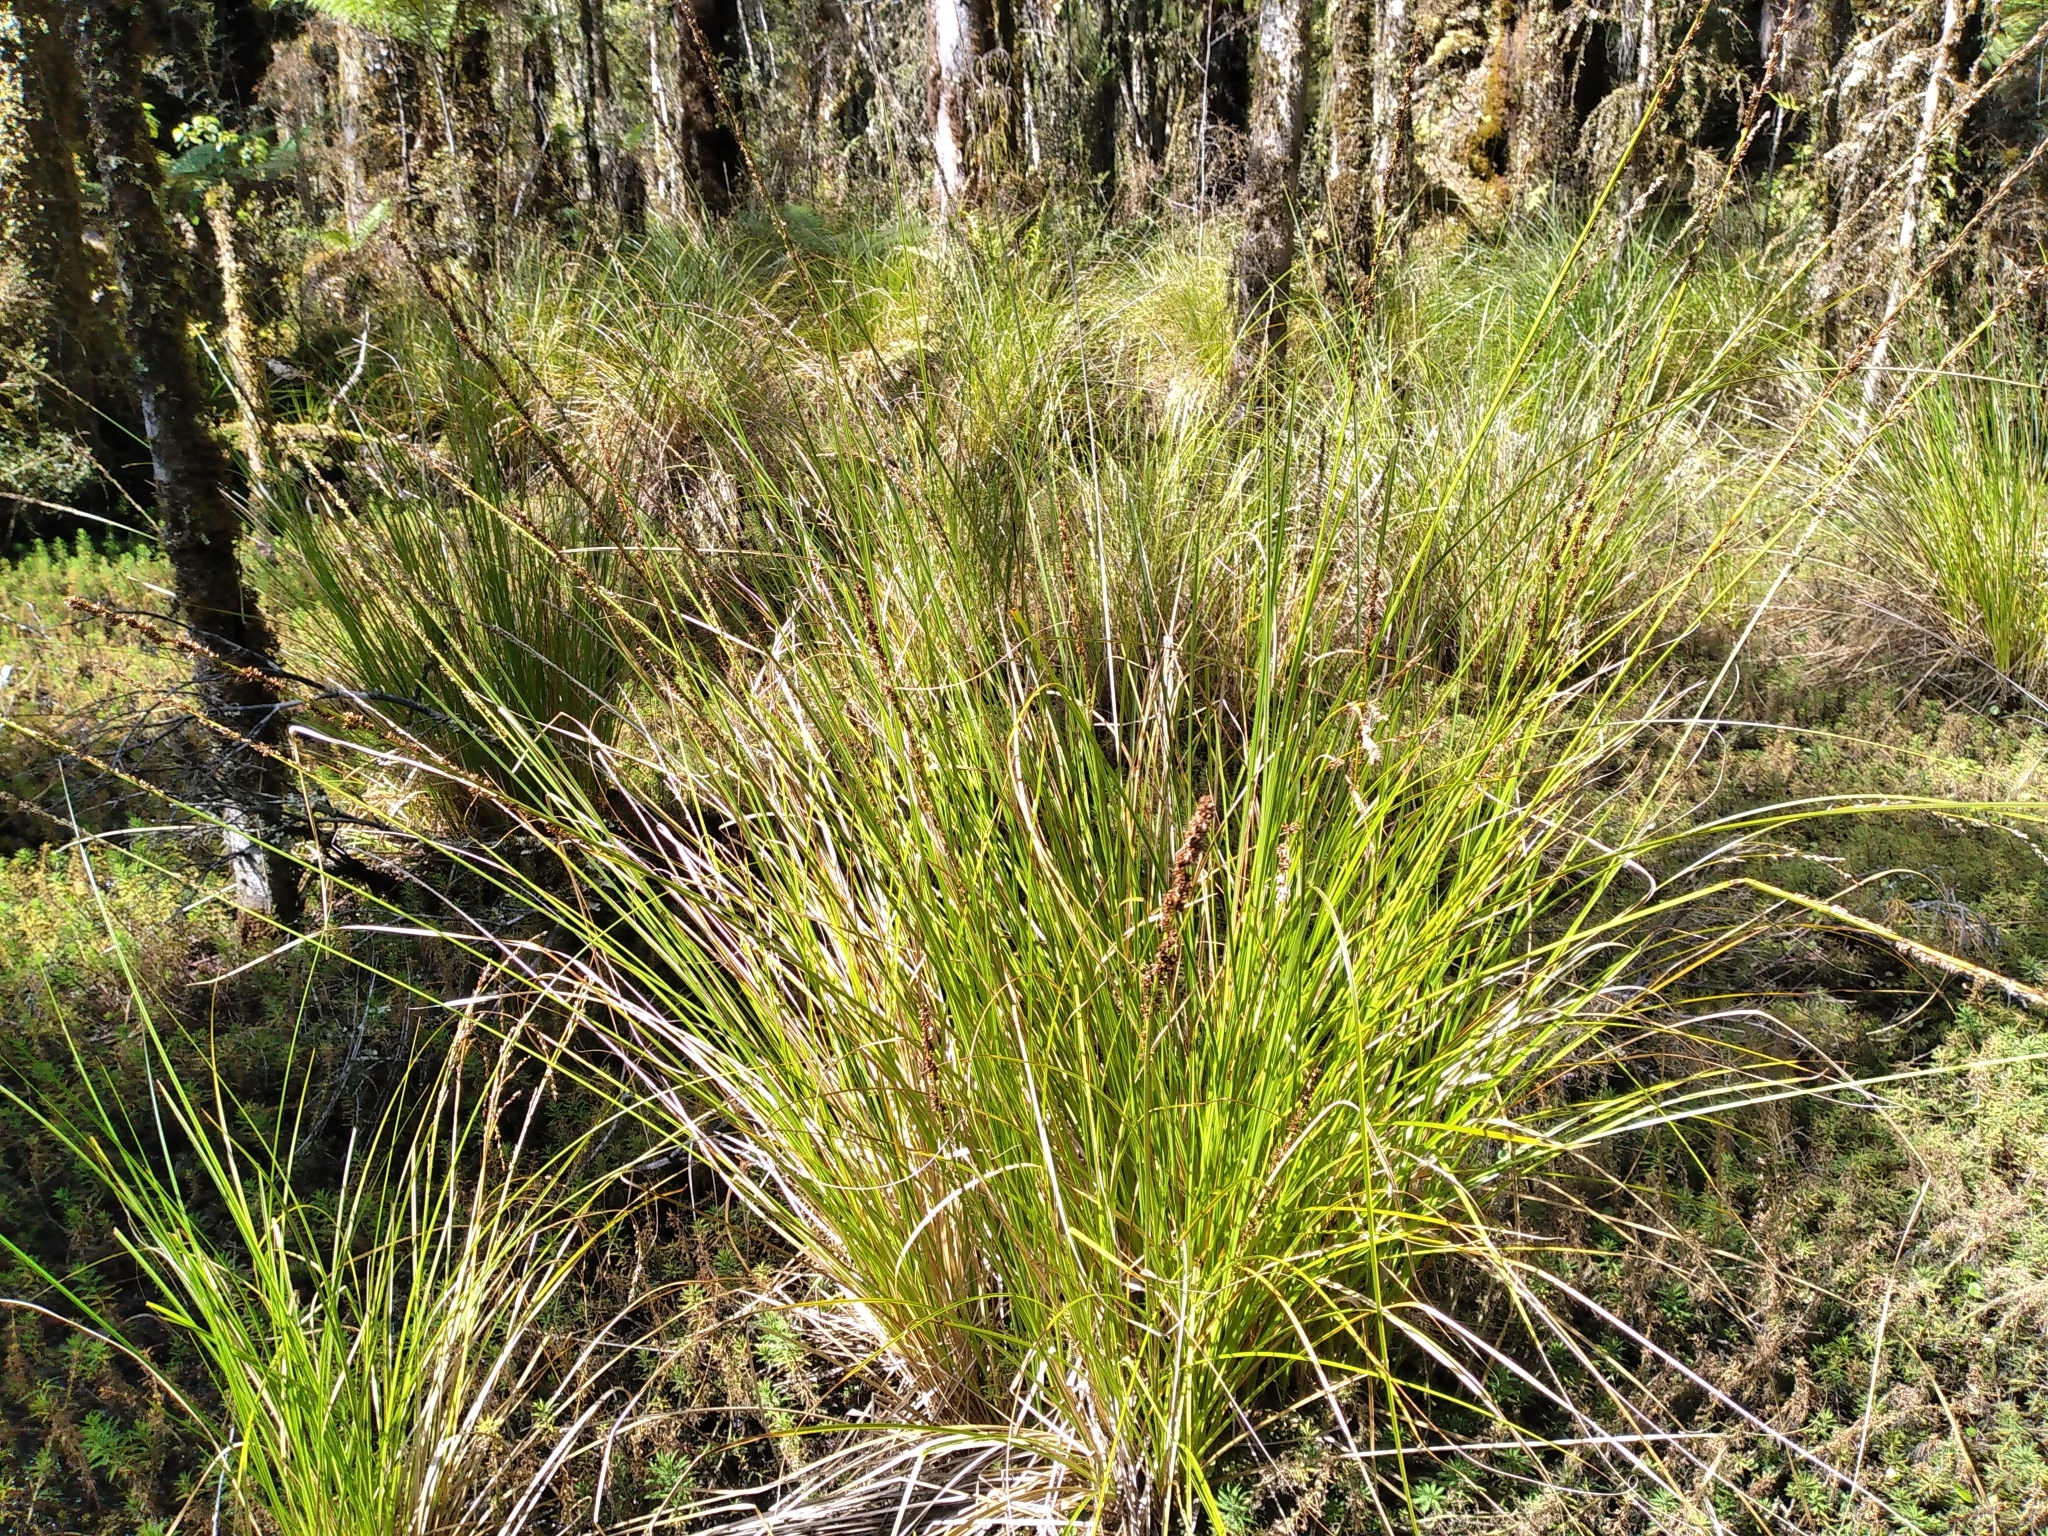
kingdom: Plantae
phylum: Tracheophyta
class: Liliopsida
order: Poales
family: Cyperaceae
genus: Carex
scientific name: Carex virgata
